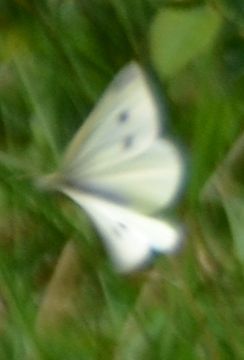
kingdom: Animalia
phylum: Arthropoda
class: Insecta
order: Lepidoptera
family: Pieridae
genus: Pieris
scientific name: Pieris rapae
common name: Small white
